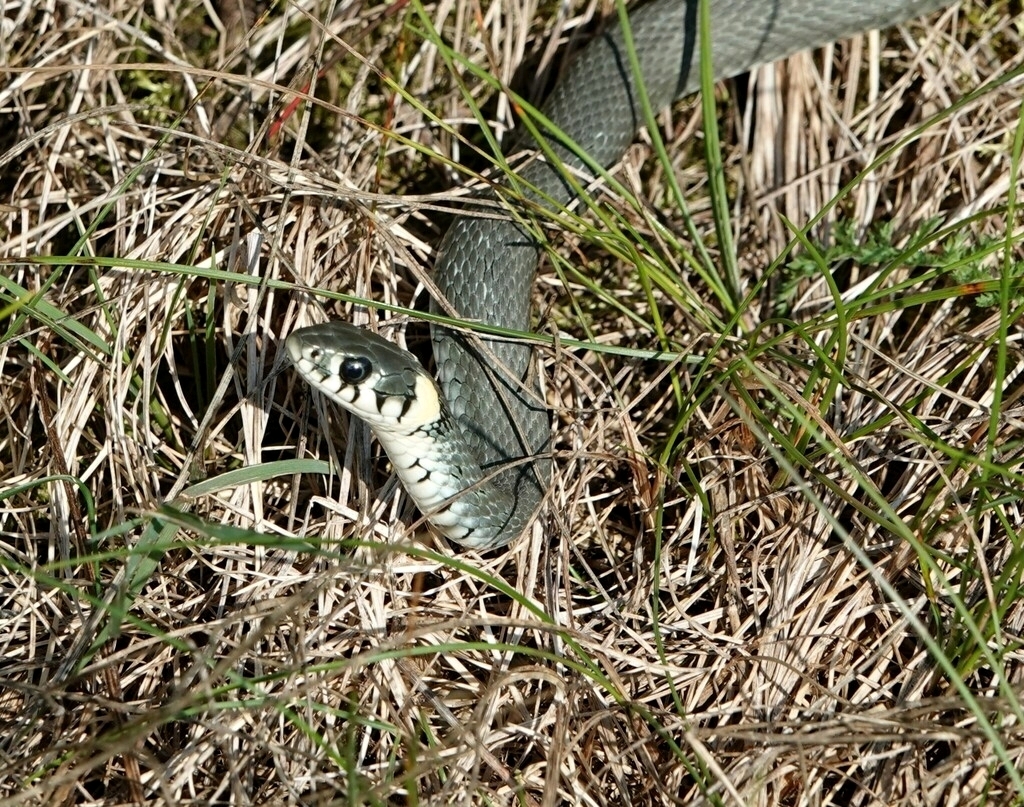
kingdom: Animalia
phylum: Chordata
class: Squamata
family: Colubridae
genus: Natrix
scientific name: Natrix natrix
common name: Grass snake
